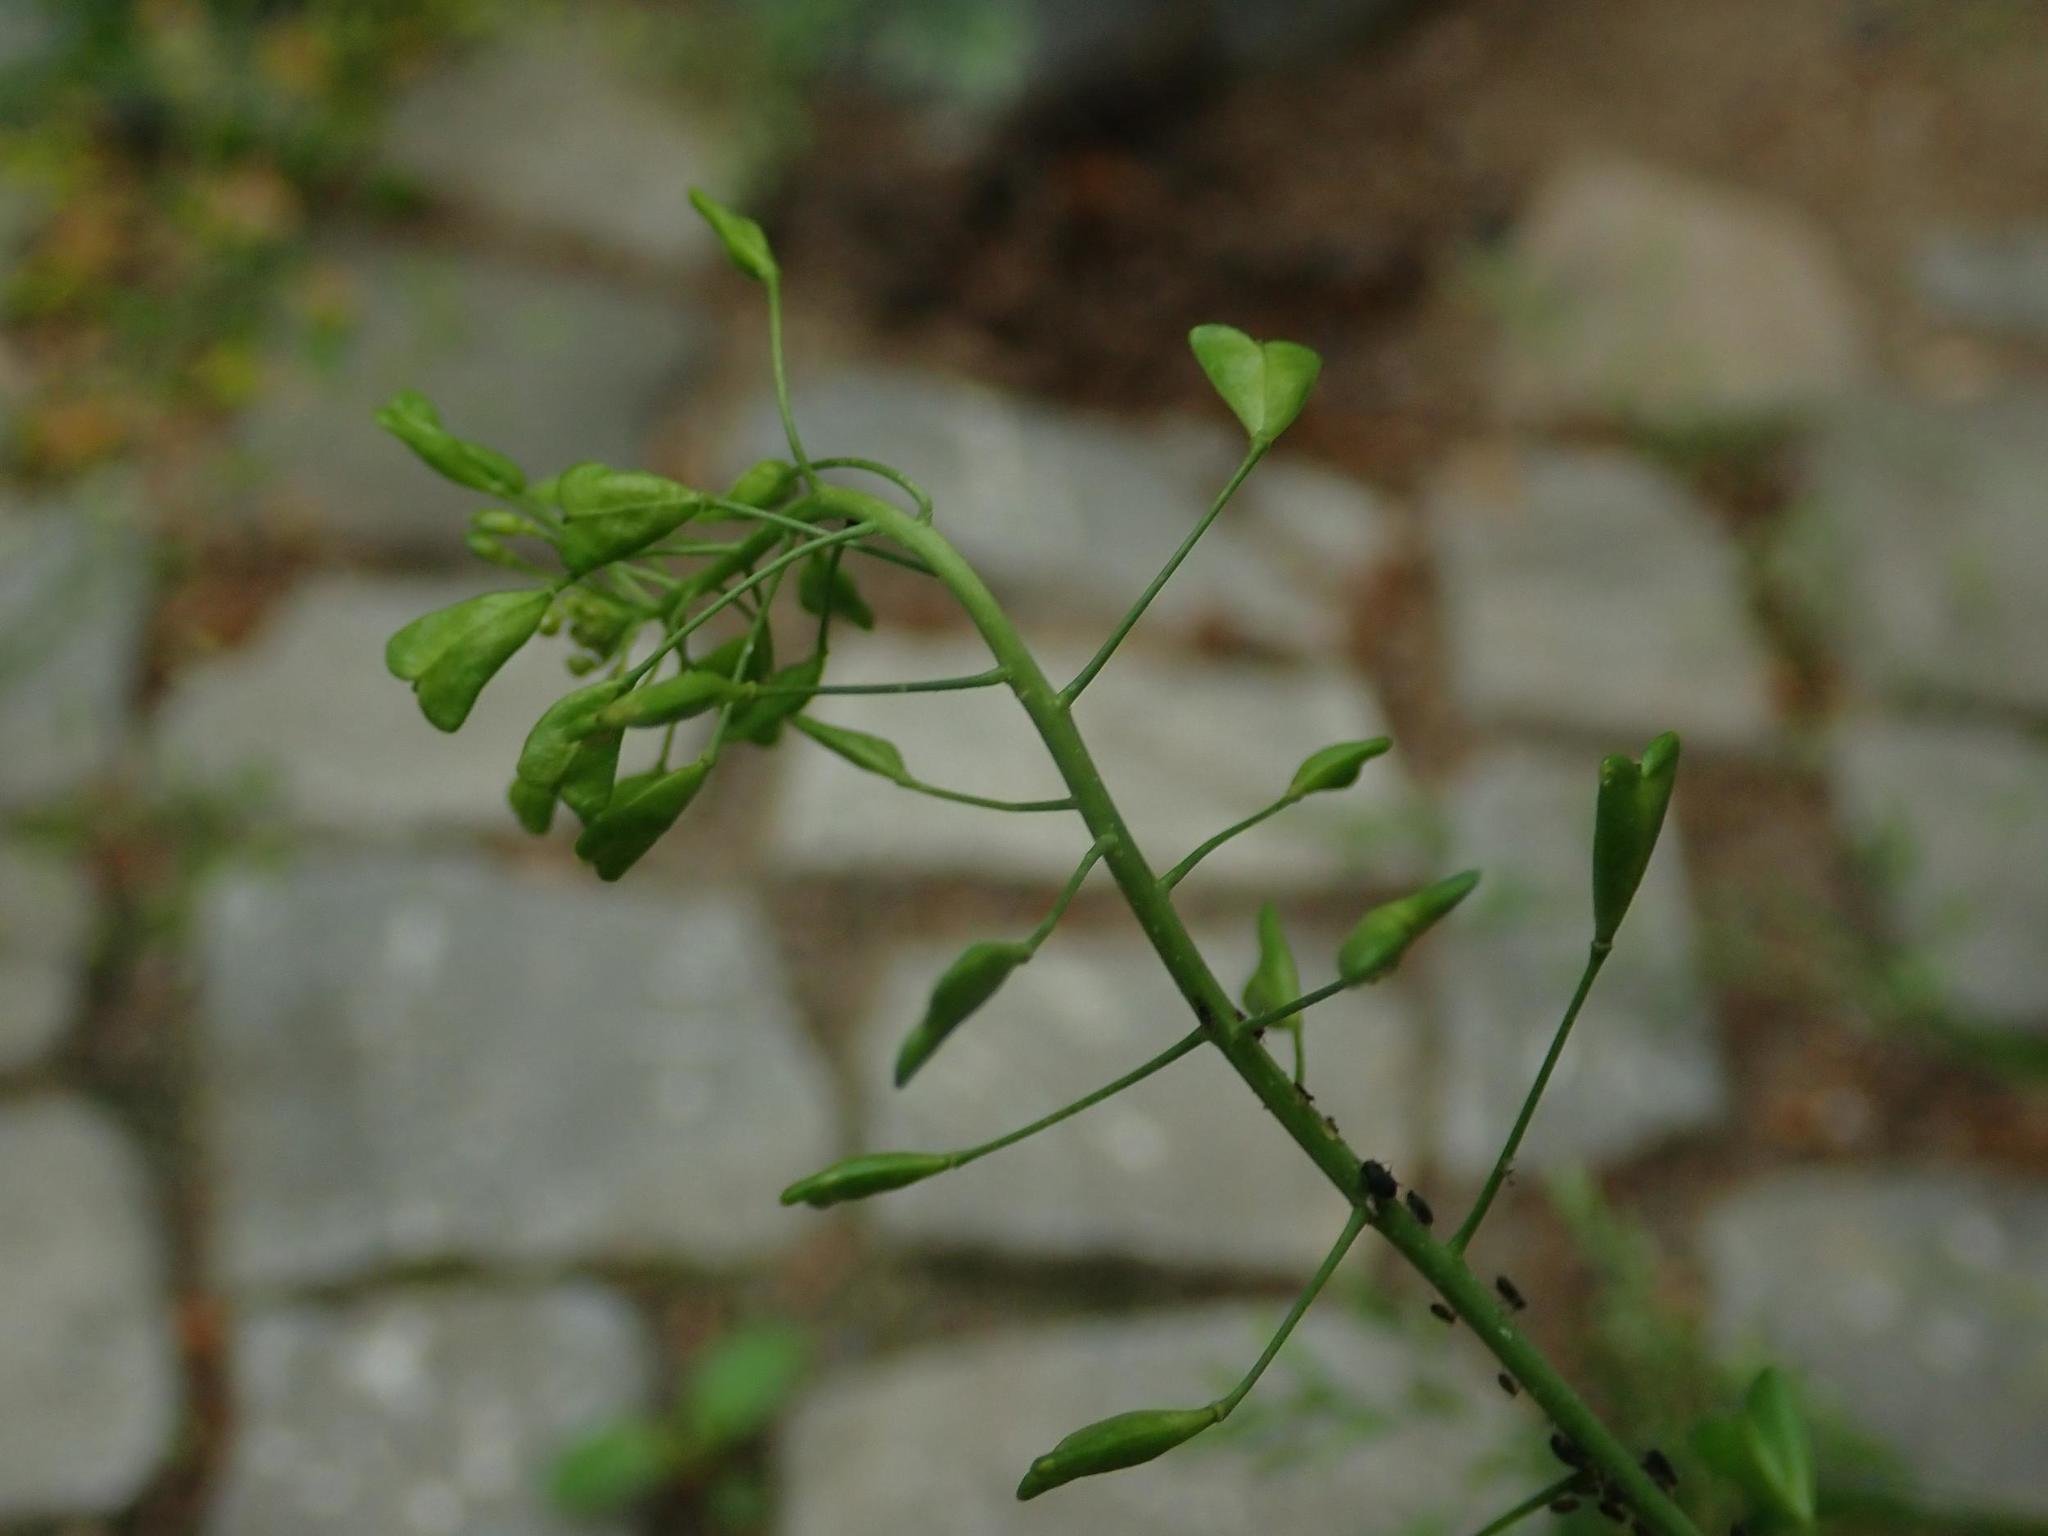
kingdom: Plantae
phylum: Tracheophyta
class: Magnoliopsida
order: Brassicales
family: Brassicaceae
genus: Capsella
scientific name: Capsella bursa-pastoris
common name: Shepherd's purse
